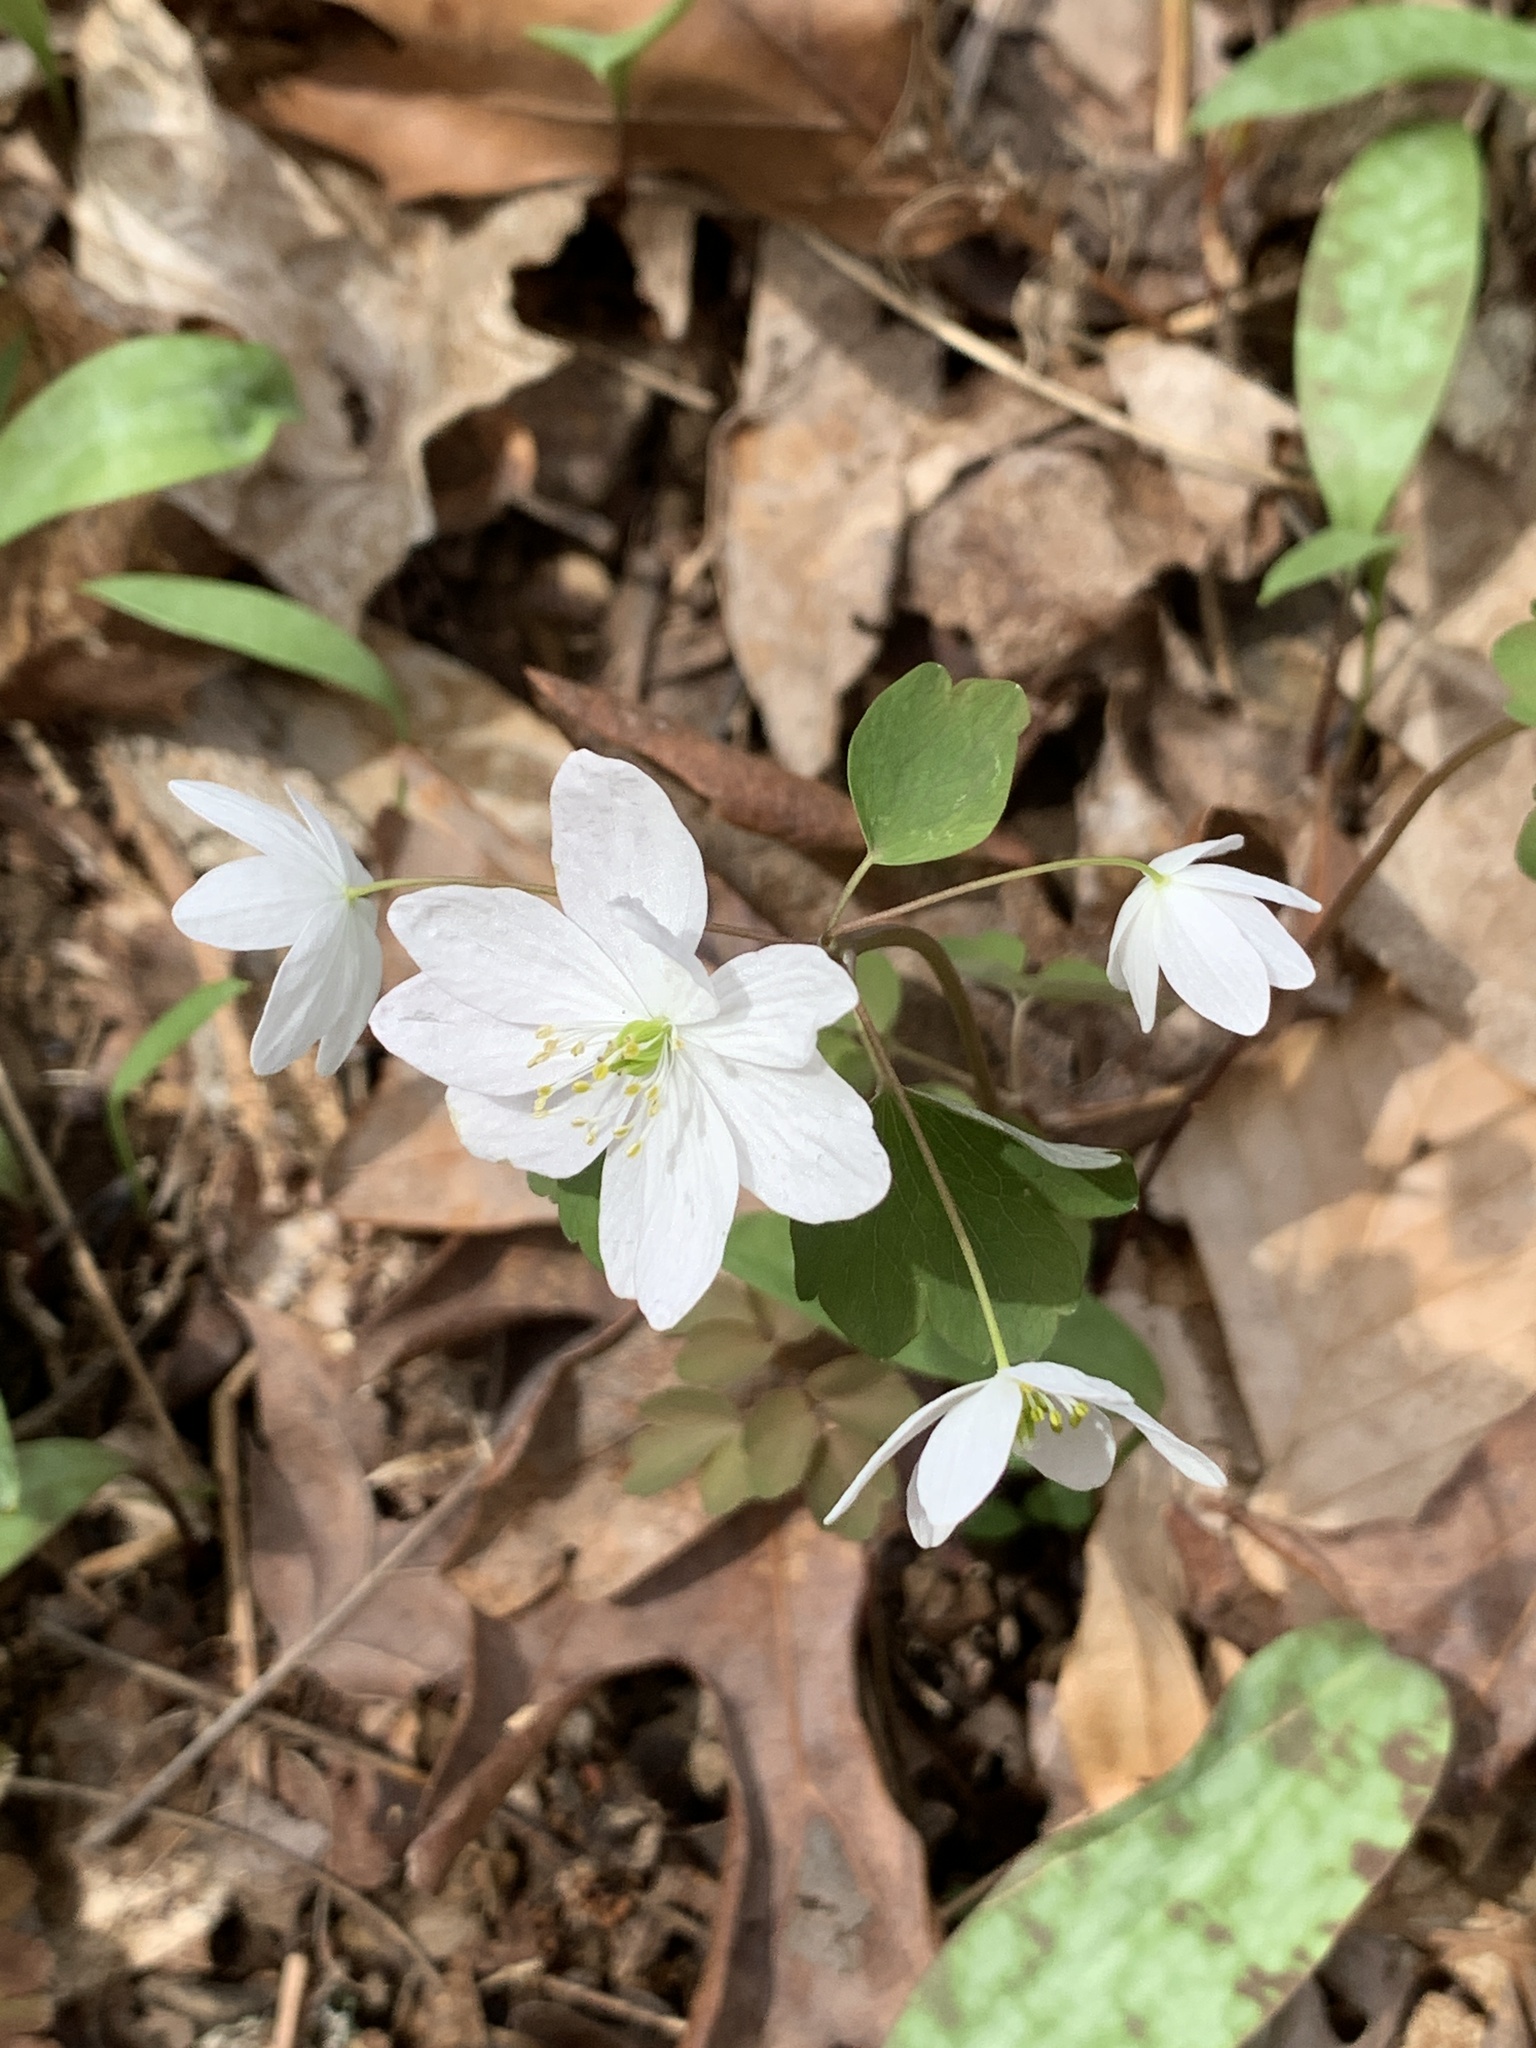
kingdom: Plantae
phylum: Tracheophyta
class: Magnoliopsida
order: Ranunculales
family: Ranunculaceae
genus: Thalictrum
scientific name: Thalictrum thalictroides
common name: Rue-anemone
